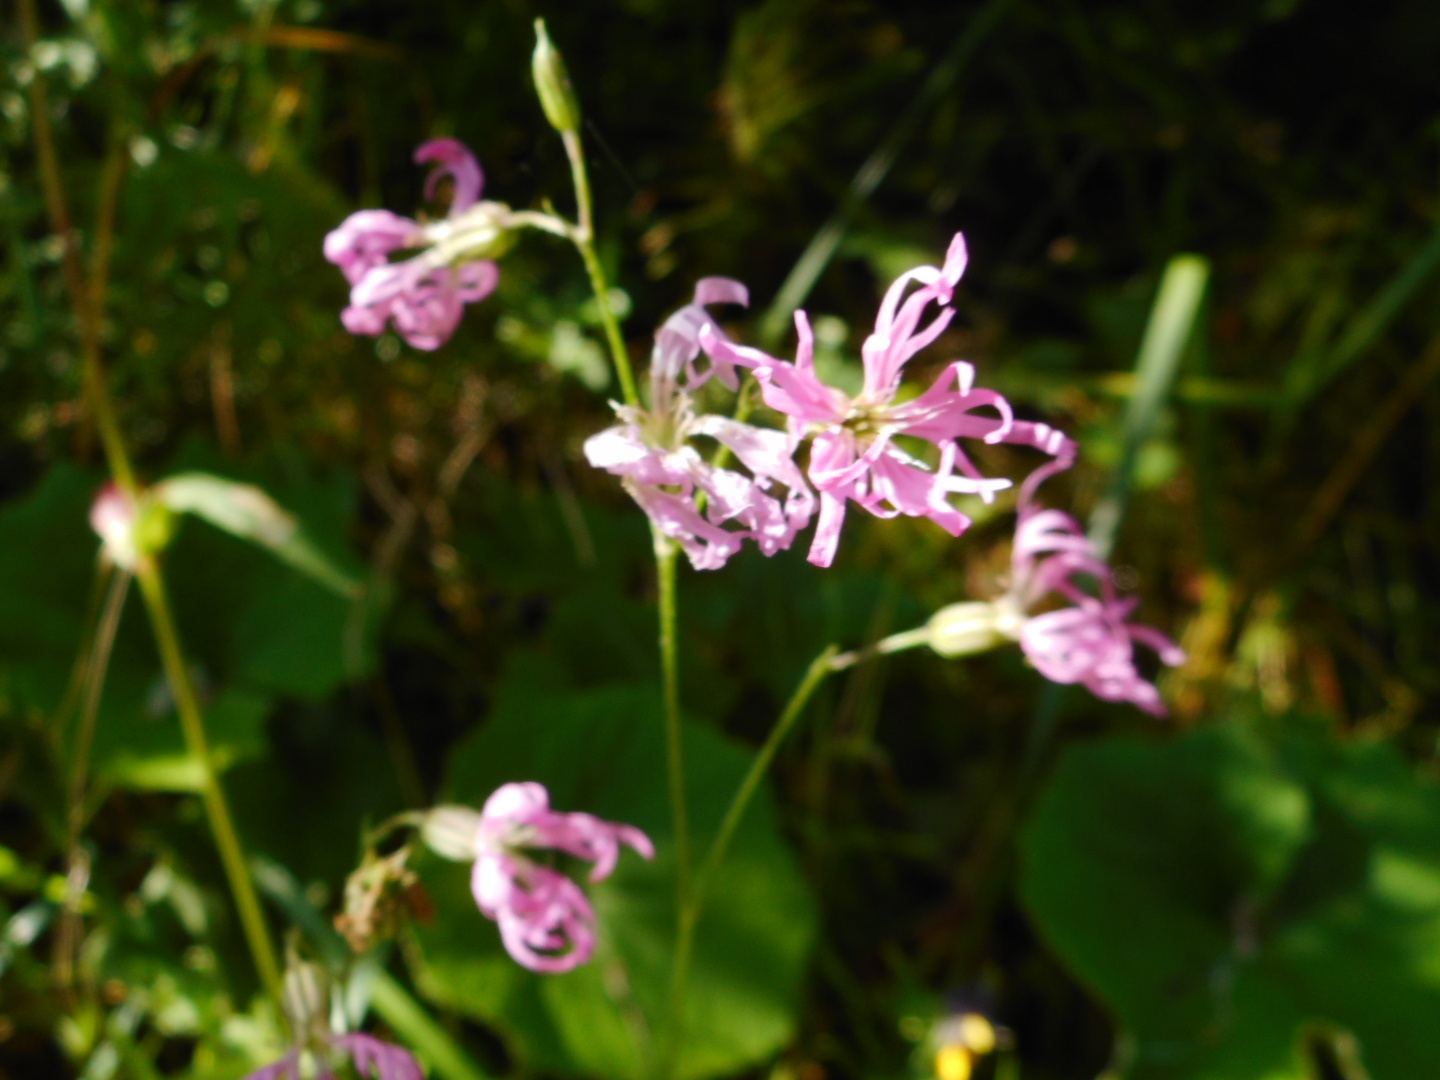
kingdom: Plantae
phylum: Tracheophyta
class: Magnoliopsida
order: Caryophyllales
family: Caryophyllaceae
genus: Silene
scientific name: Silene flos-cuculi
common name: Ragged-robin
